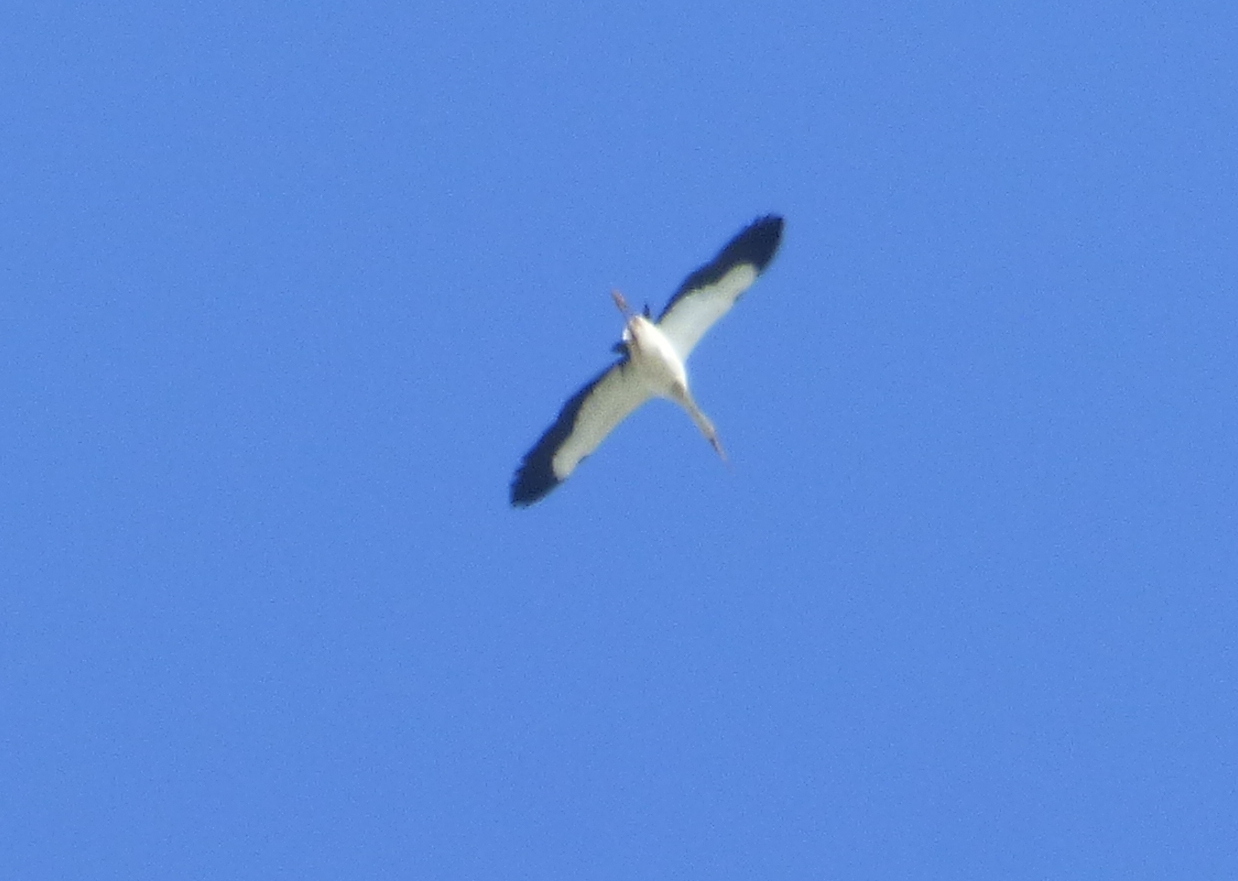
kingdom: Animalia
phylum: Chordata
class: Aves
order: Ciconiiformes
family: Ciconiidae
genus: Ciconia
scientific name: Ciconia maguari
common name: Maguari stork
